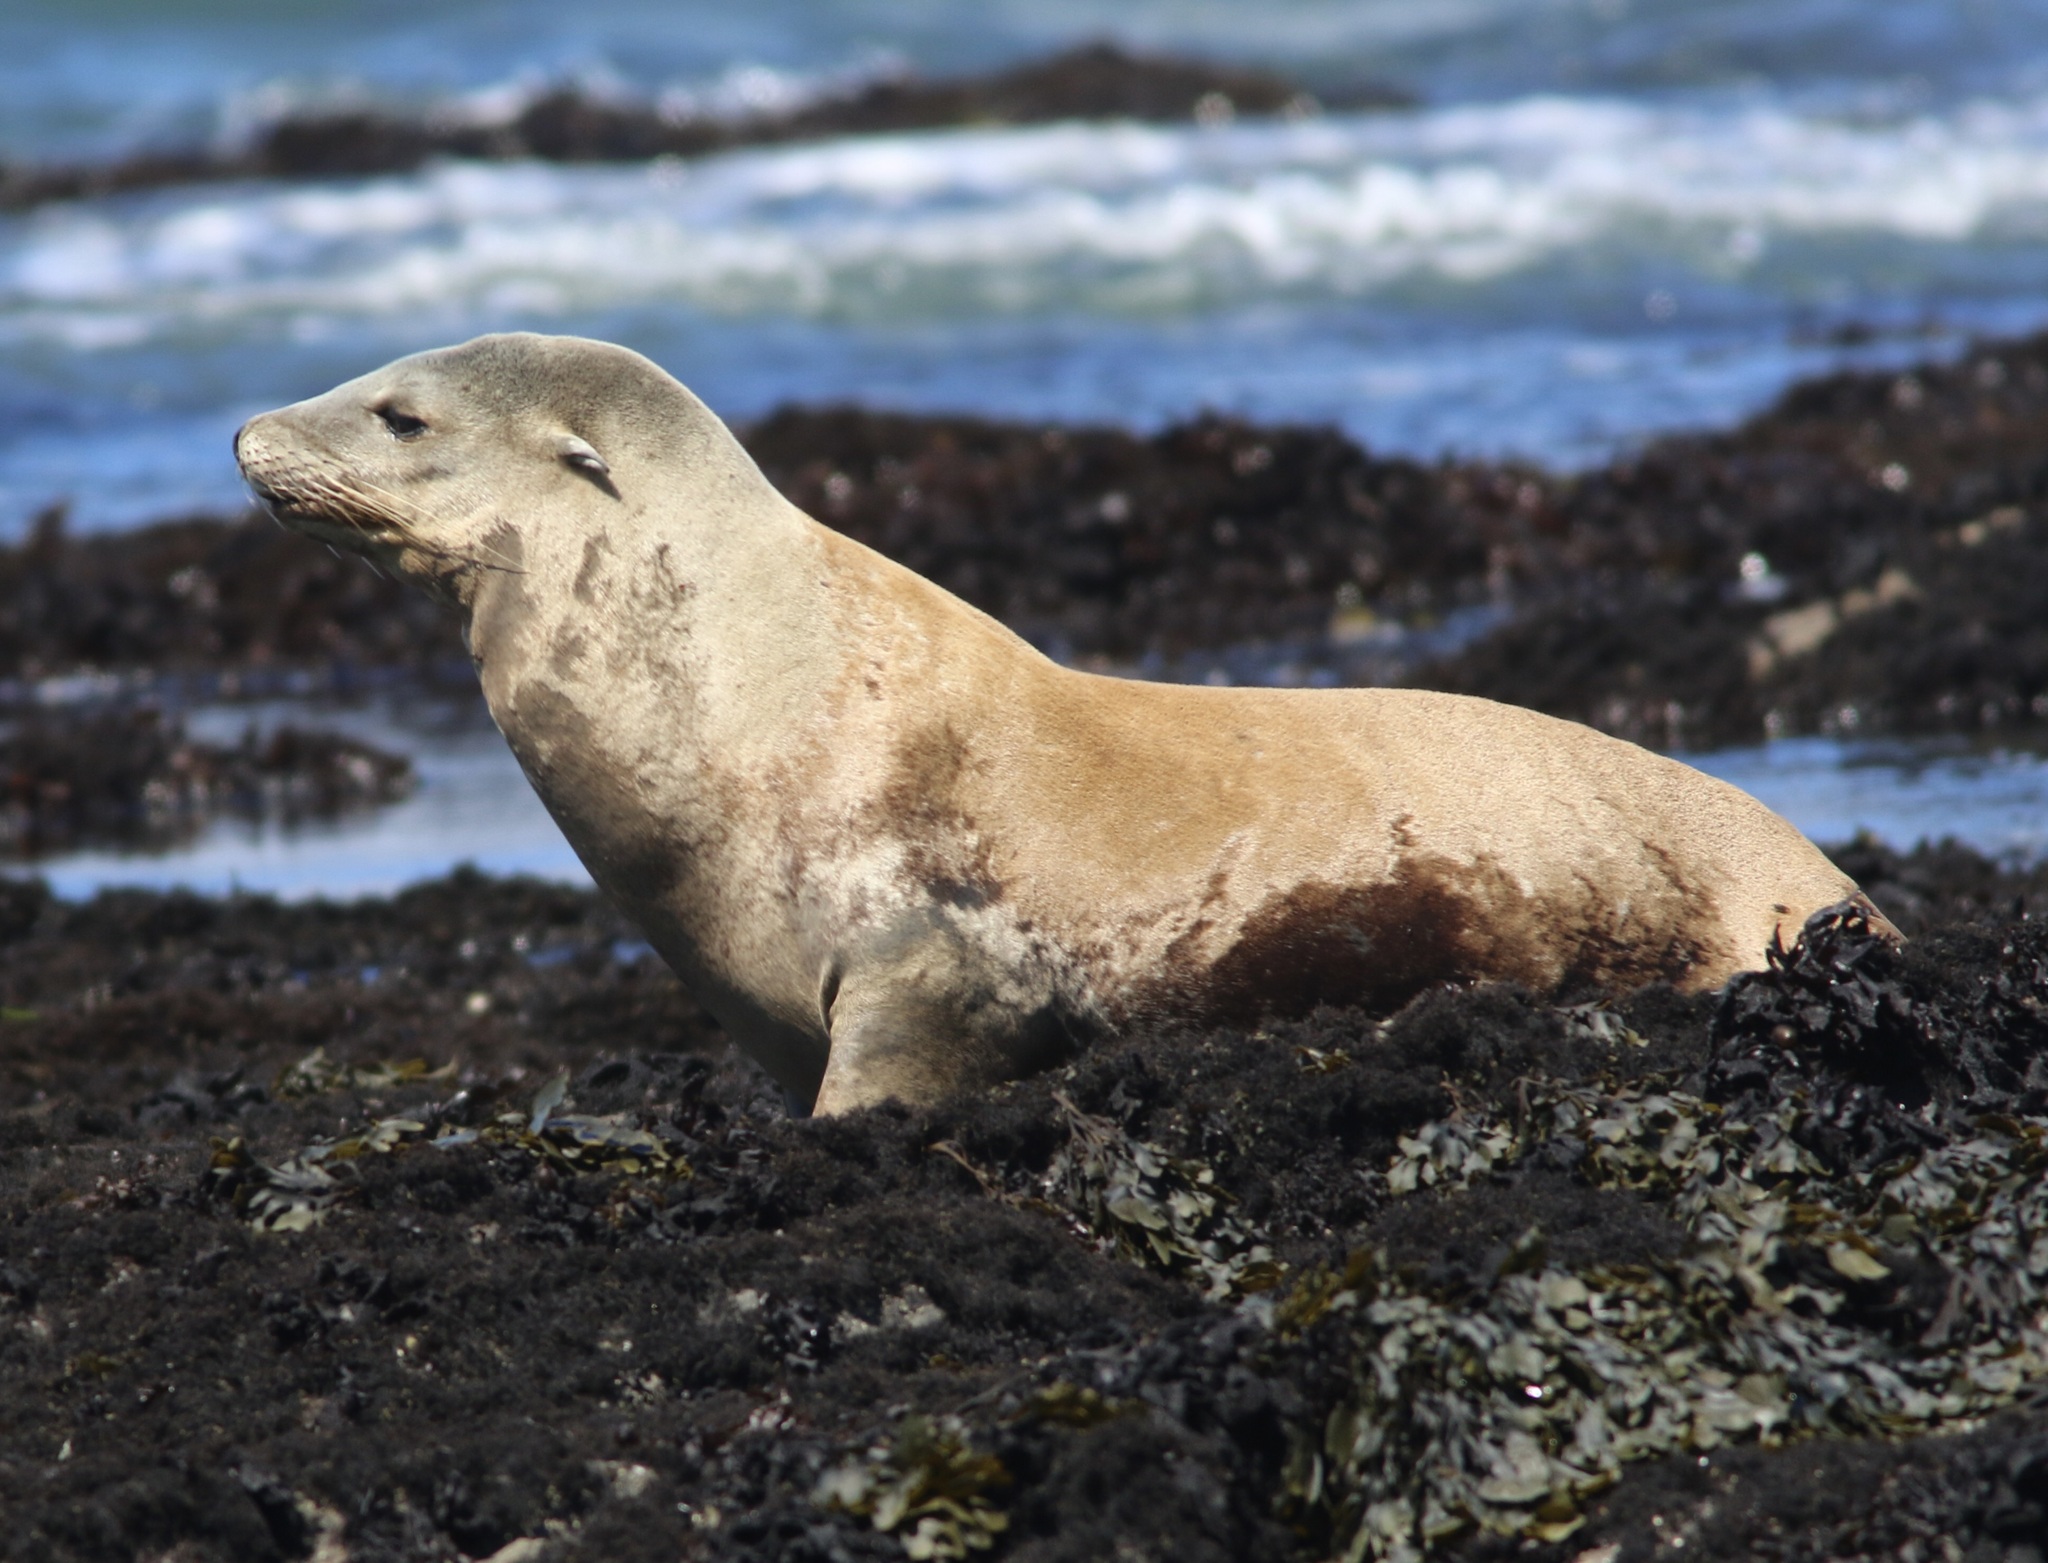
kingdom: Animalia
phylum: Chordata
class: Mammalia
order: Carnivora
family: Otariidae
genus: Zalophus
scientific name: Zalophus californianus
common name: California sea lion
